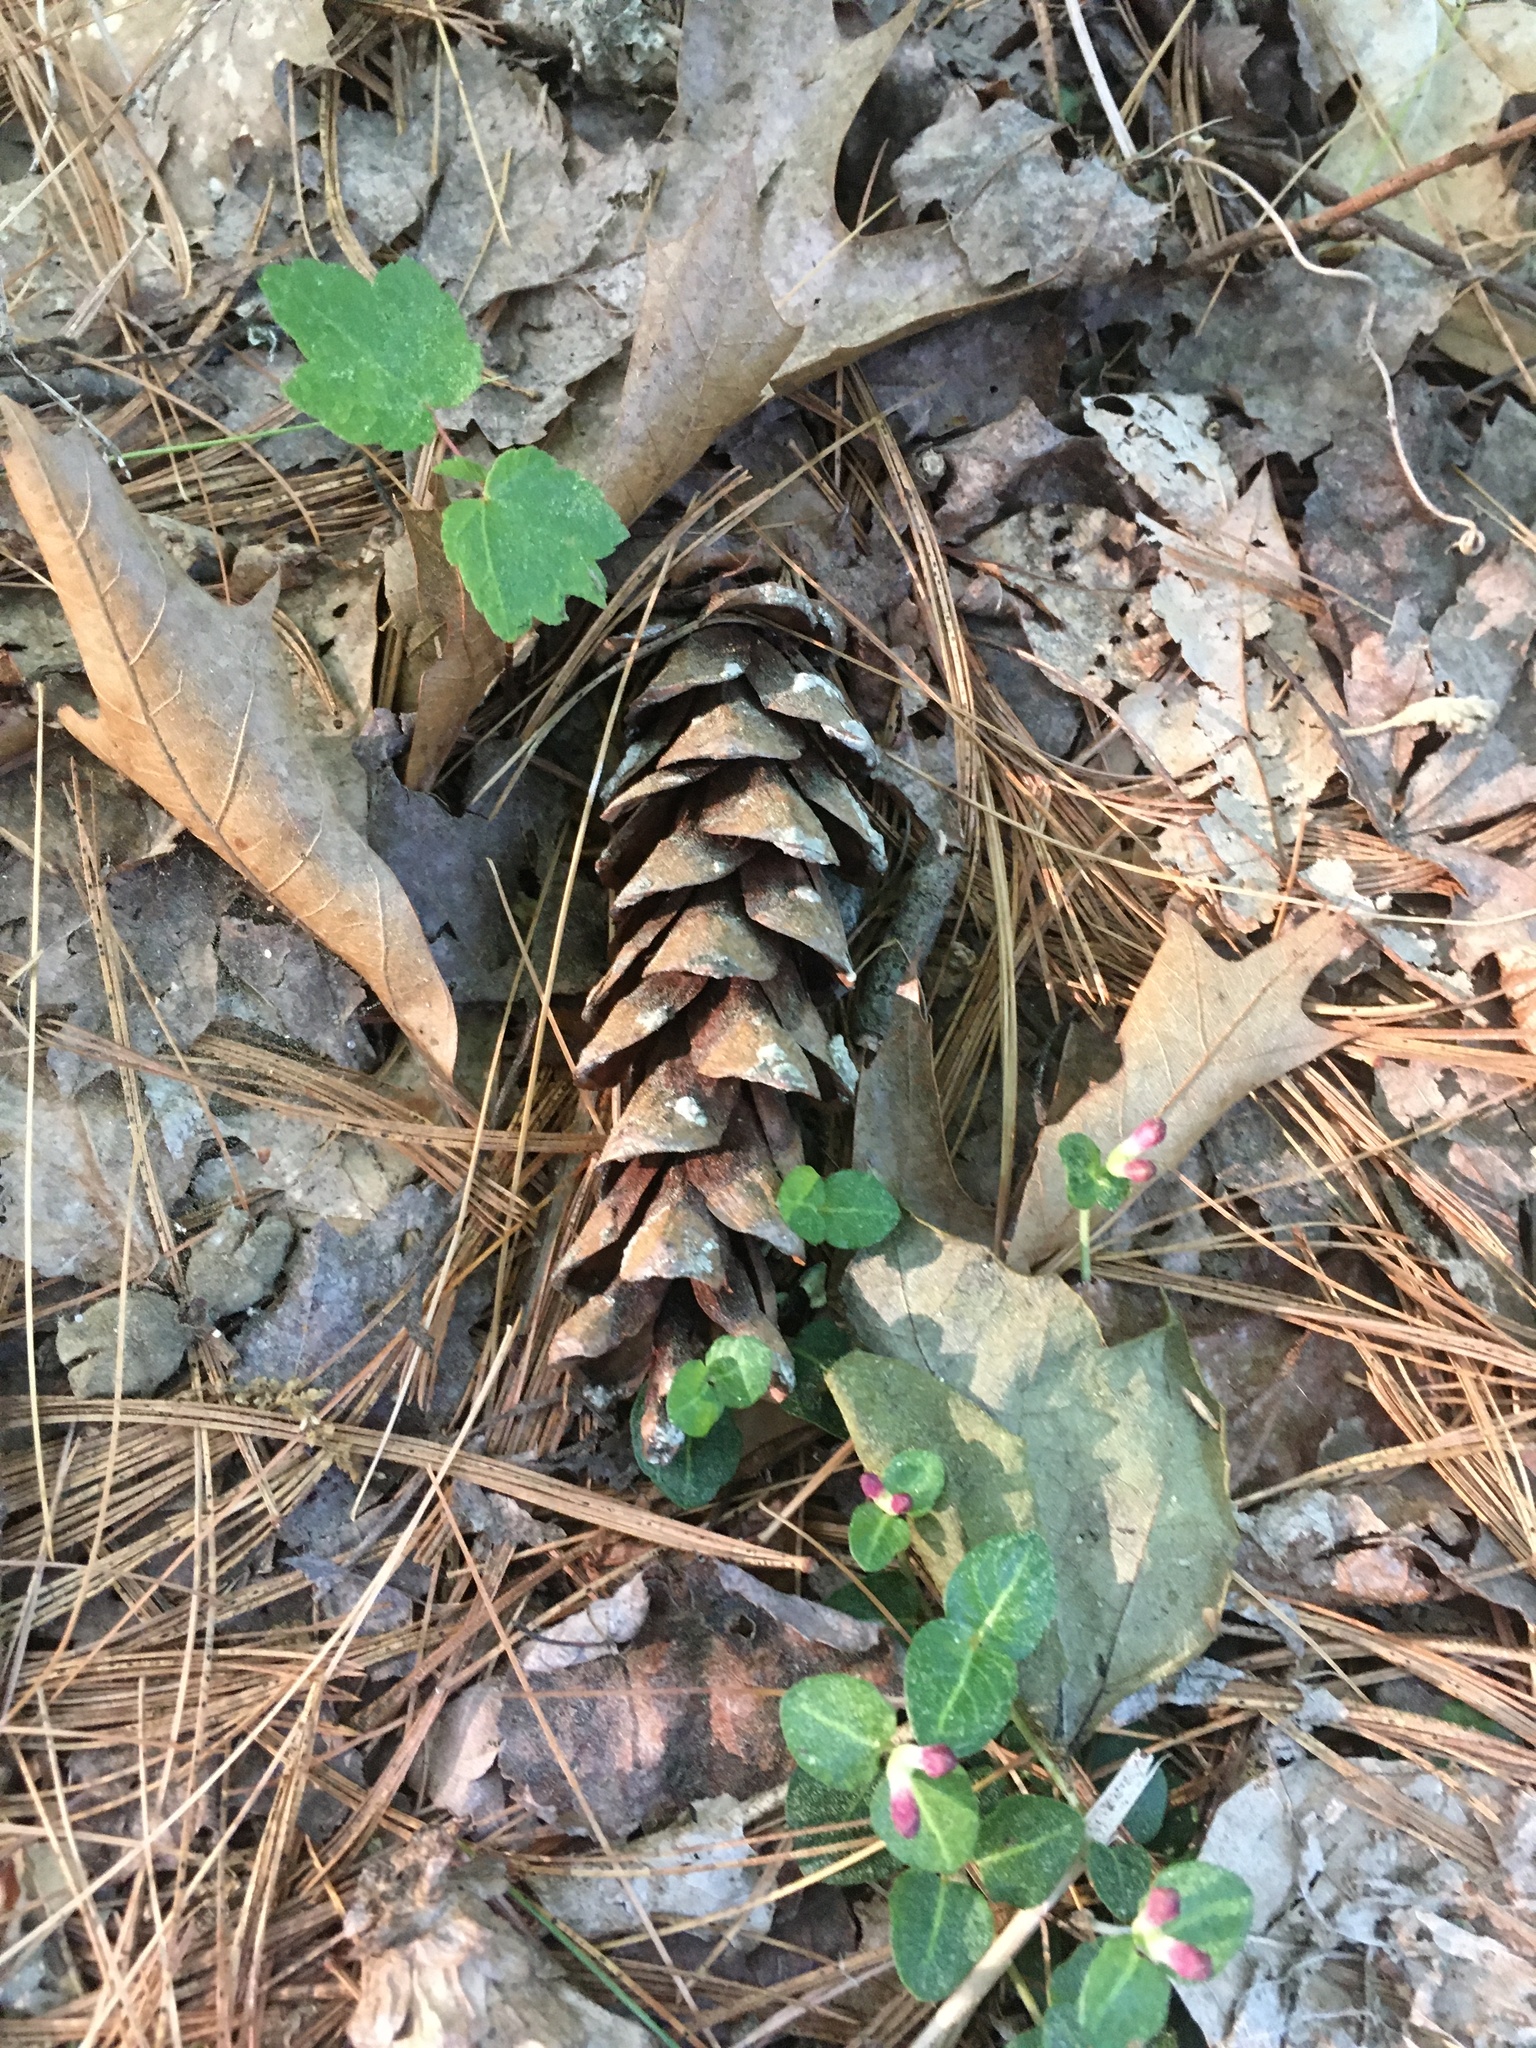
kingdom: Plantae
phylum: Tracheophyta
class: Pinopsida
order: Pinales
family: Pinaceae
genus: Pinus
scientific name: Pinus strobus
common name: Weymouth pine
